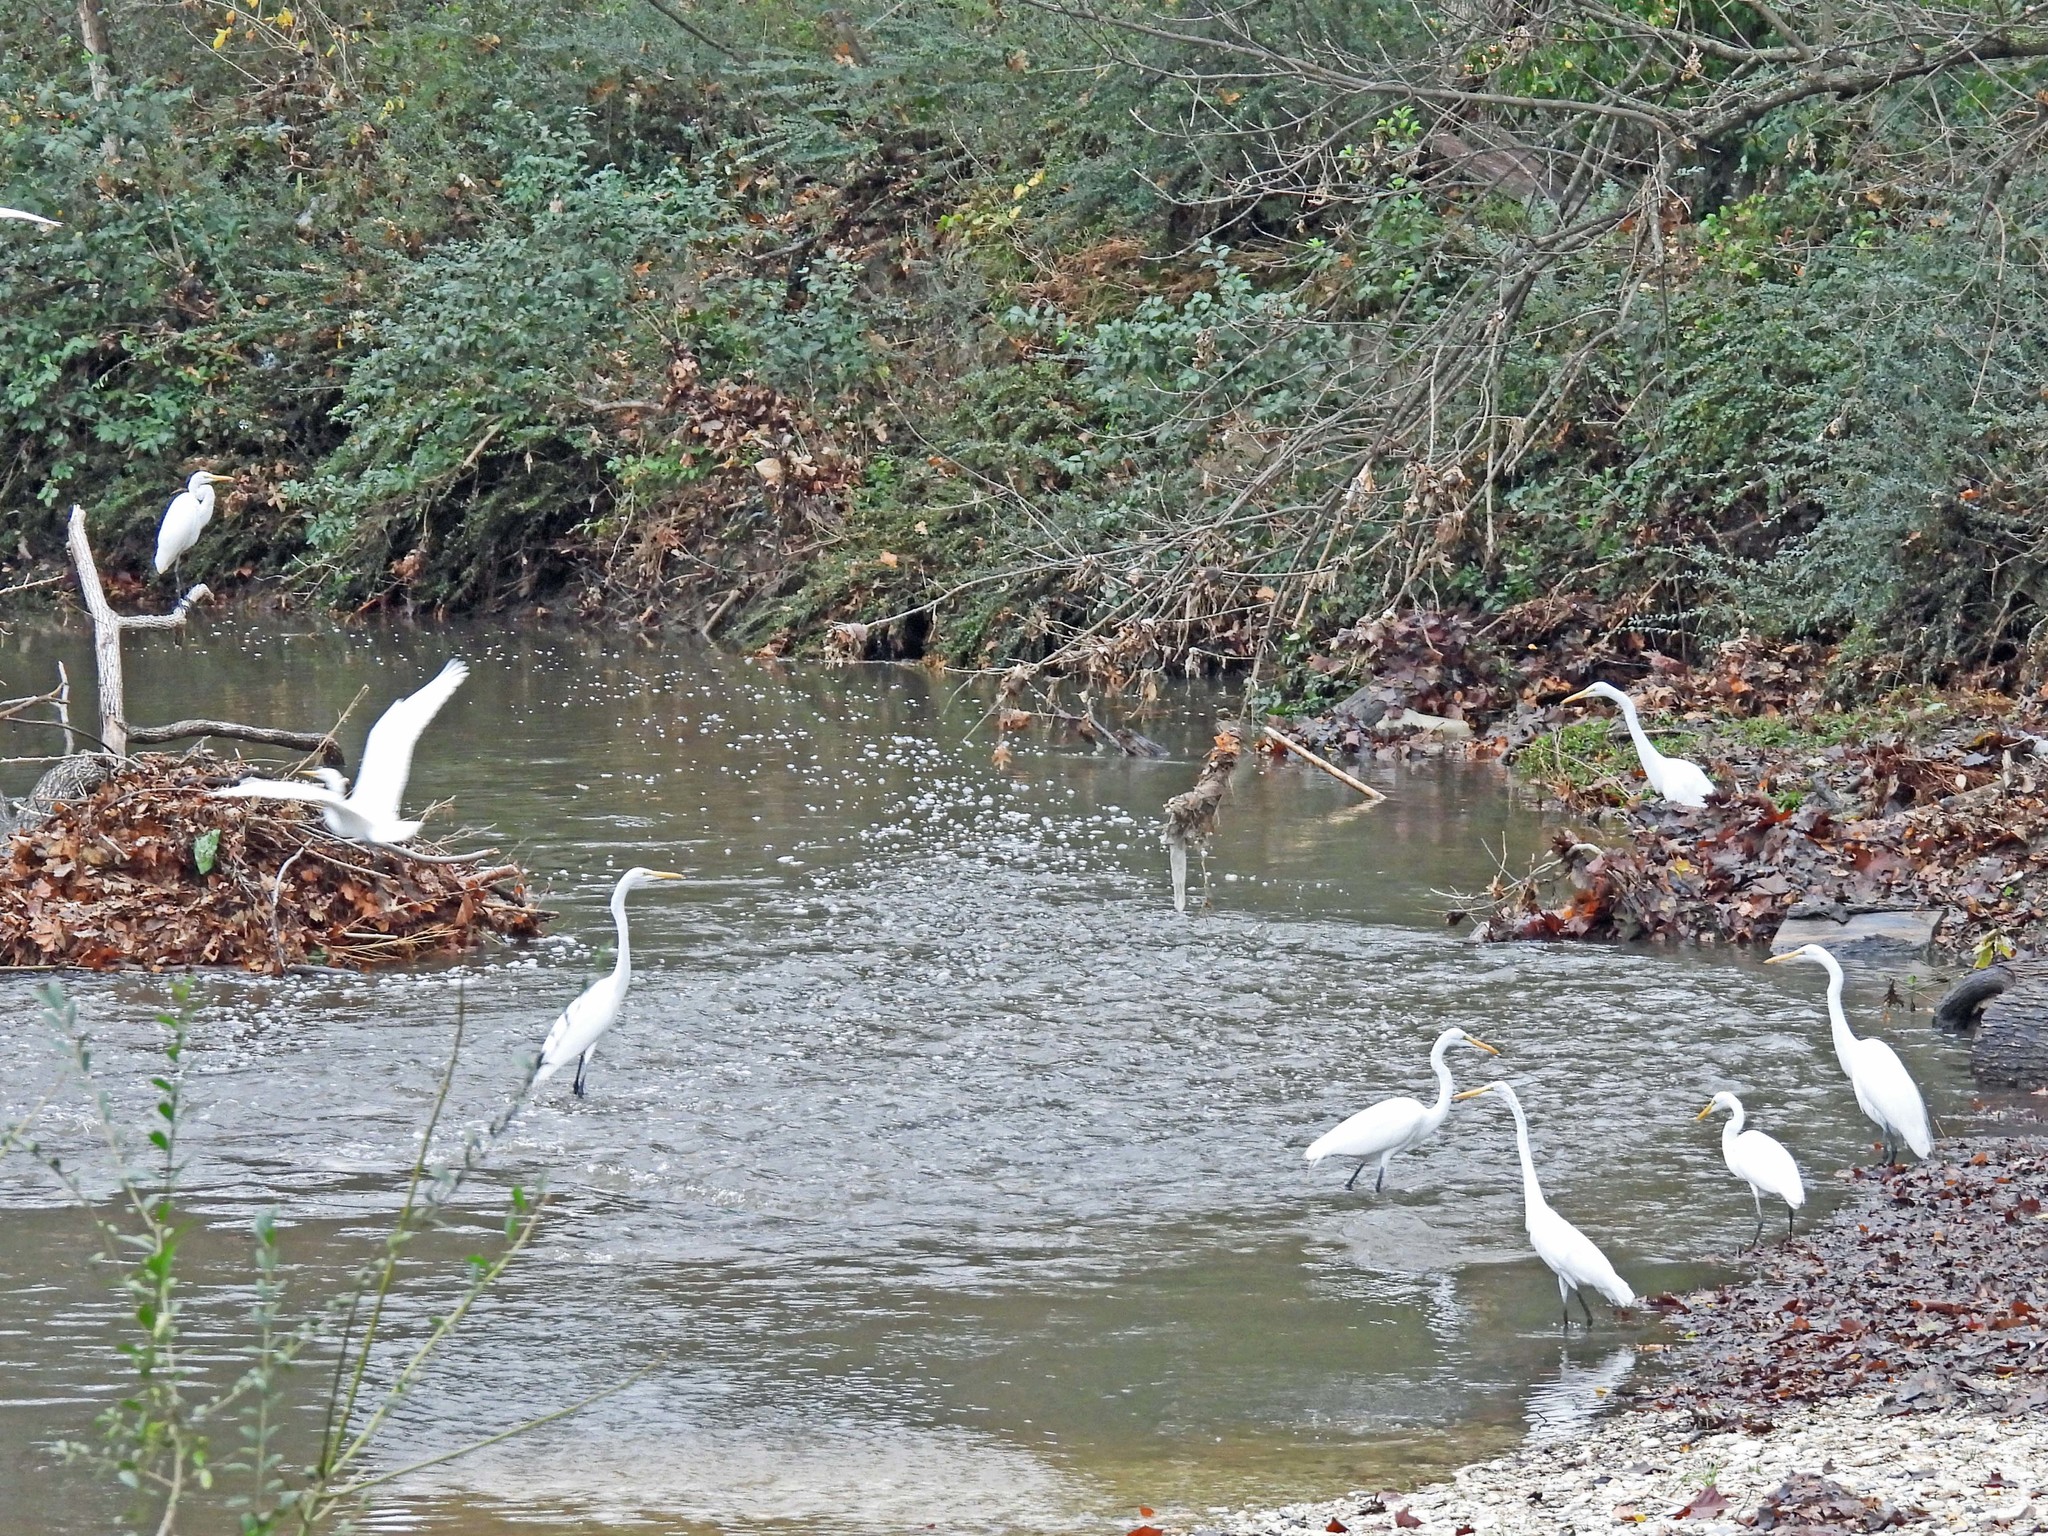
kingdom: Animalia
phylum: Chordata
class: Aves
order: Pelecaniformes
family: Ardeidae
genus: Ardea
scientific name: Ardea alba
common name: Great egret
